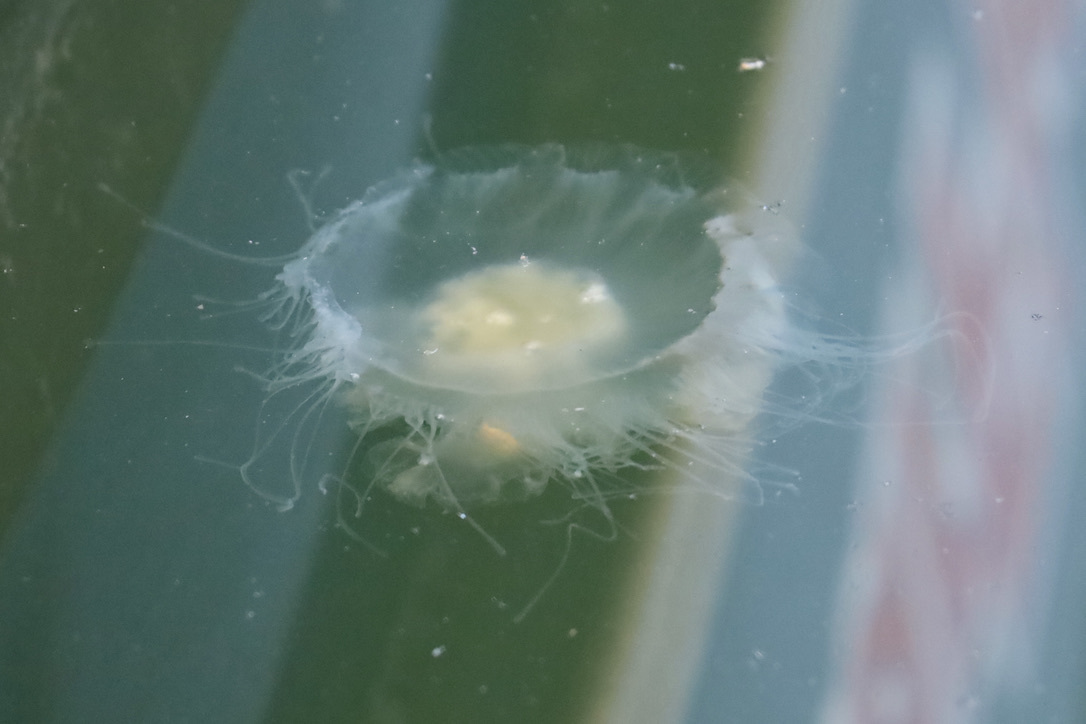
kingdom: Animalia
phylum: Cnidaria
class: Scyphozoa
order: Semaeostomeae
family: Phacellophoridae
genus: Phacellophora
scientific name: Phacellophora camtschatica
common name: Fried-egg jellyfish
